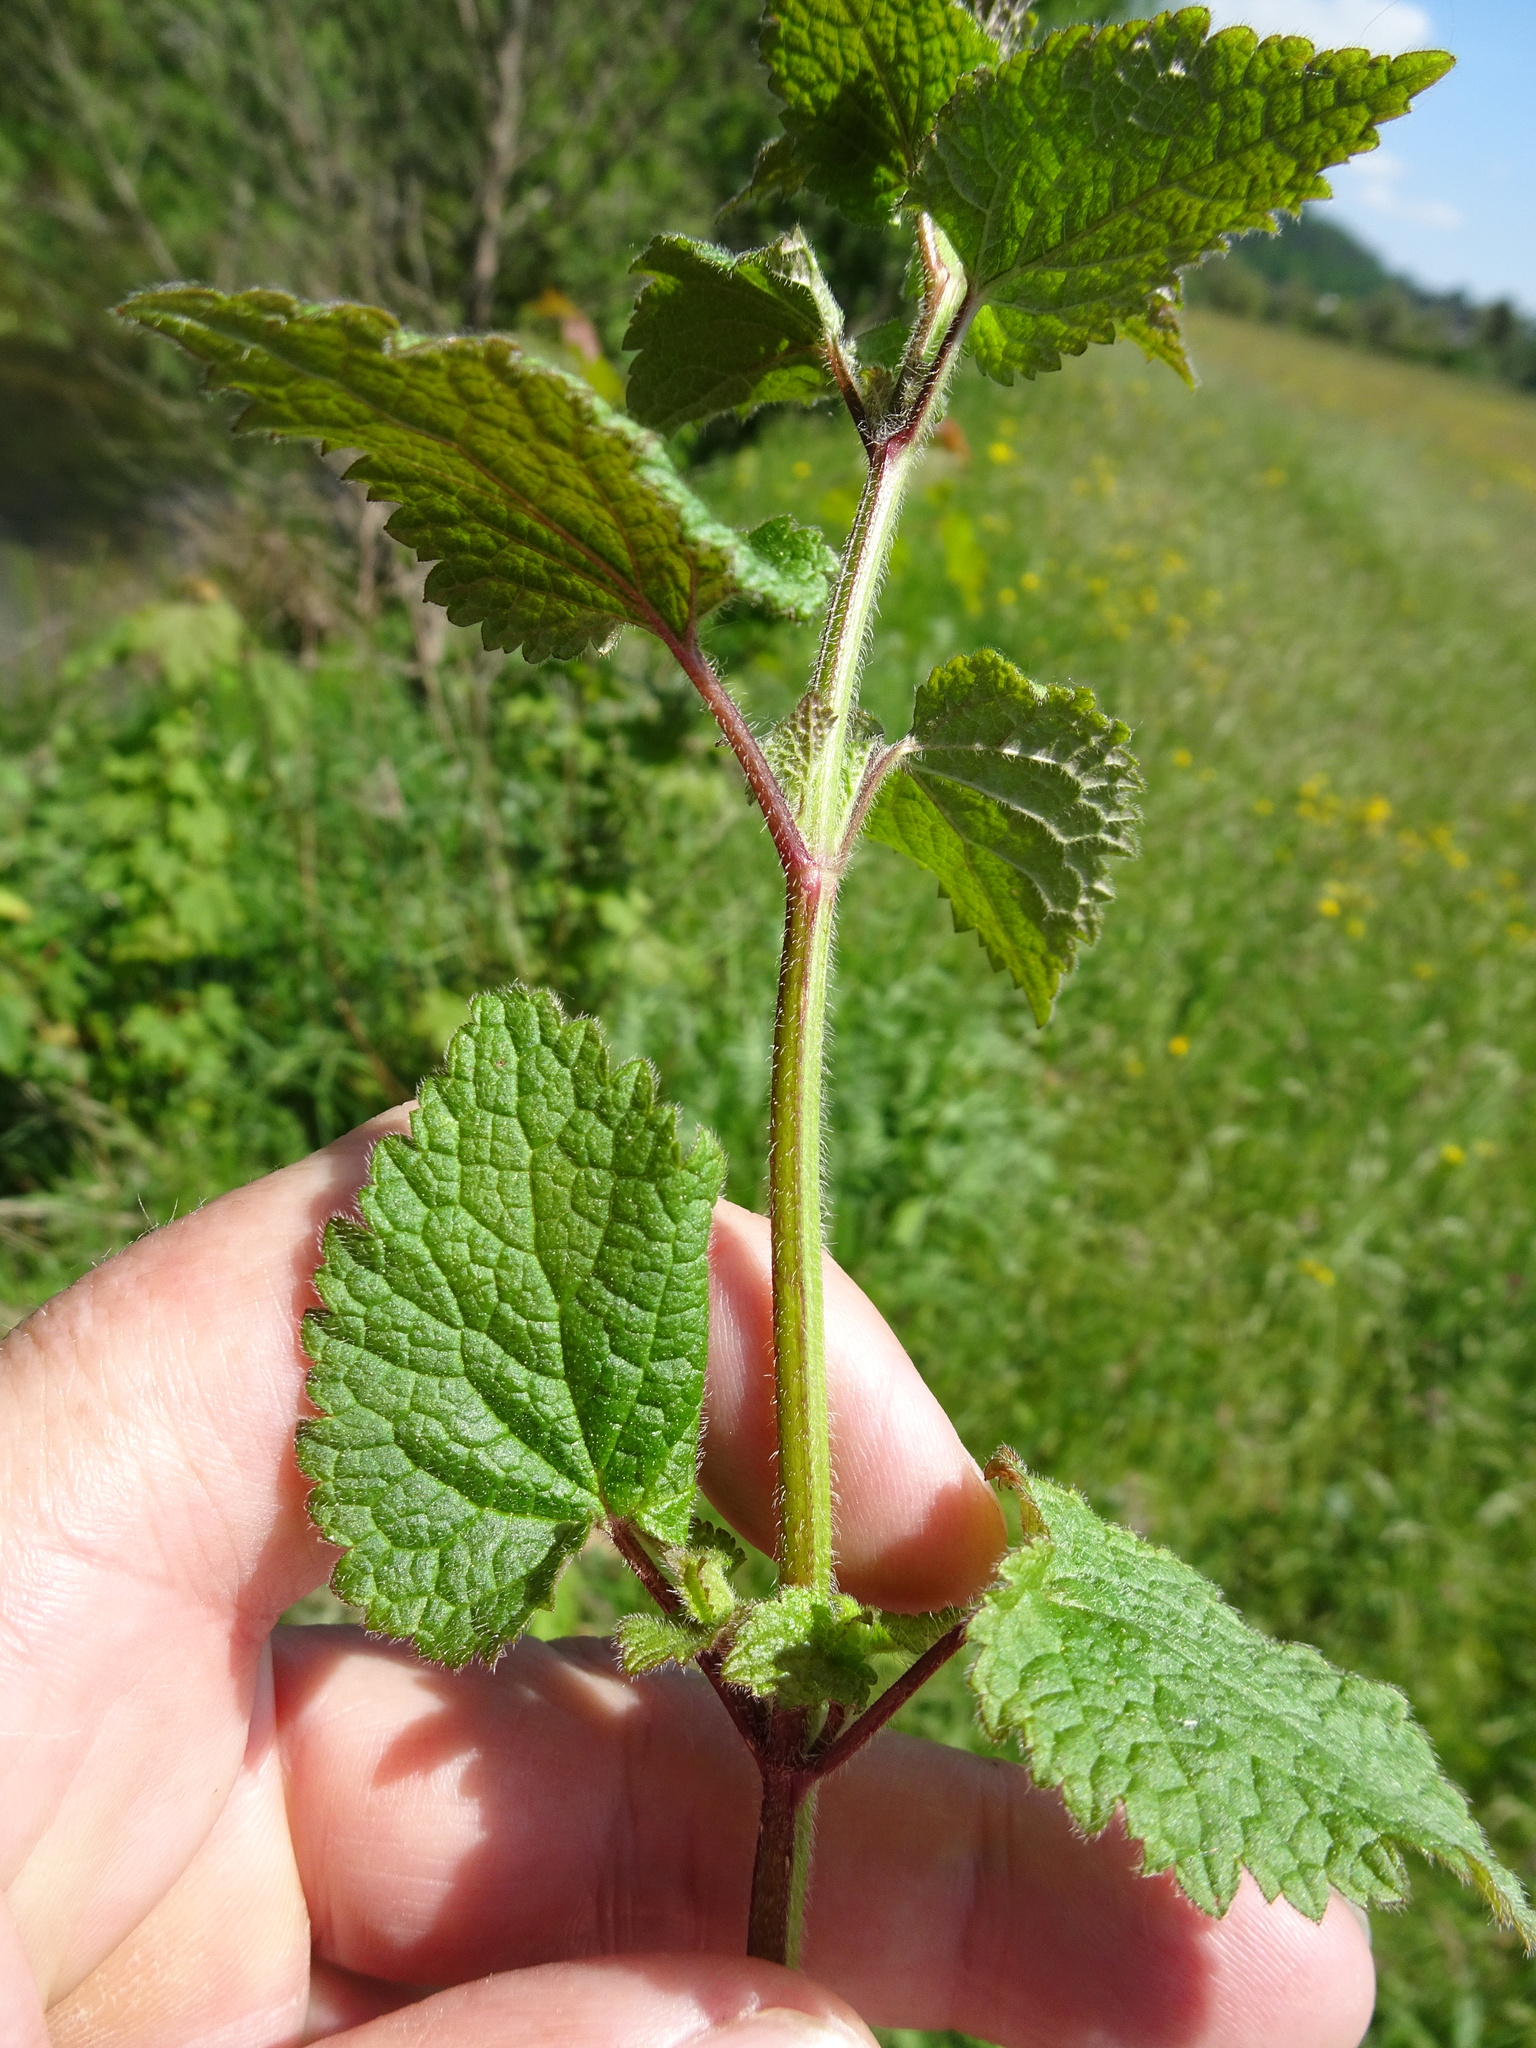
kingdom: Plantae
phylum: Tracheophyta
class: Magnoliopsida
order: Lamiales
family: Lamiaceae
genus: Ballota
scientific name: Ballota nigra
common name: Black horehound
